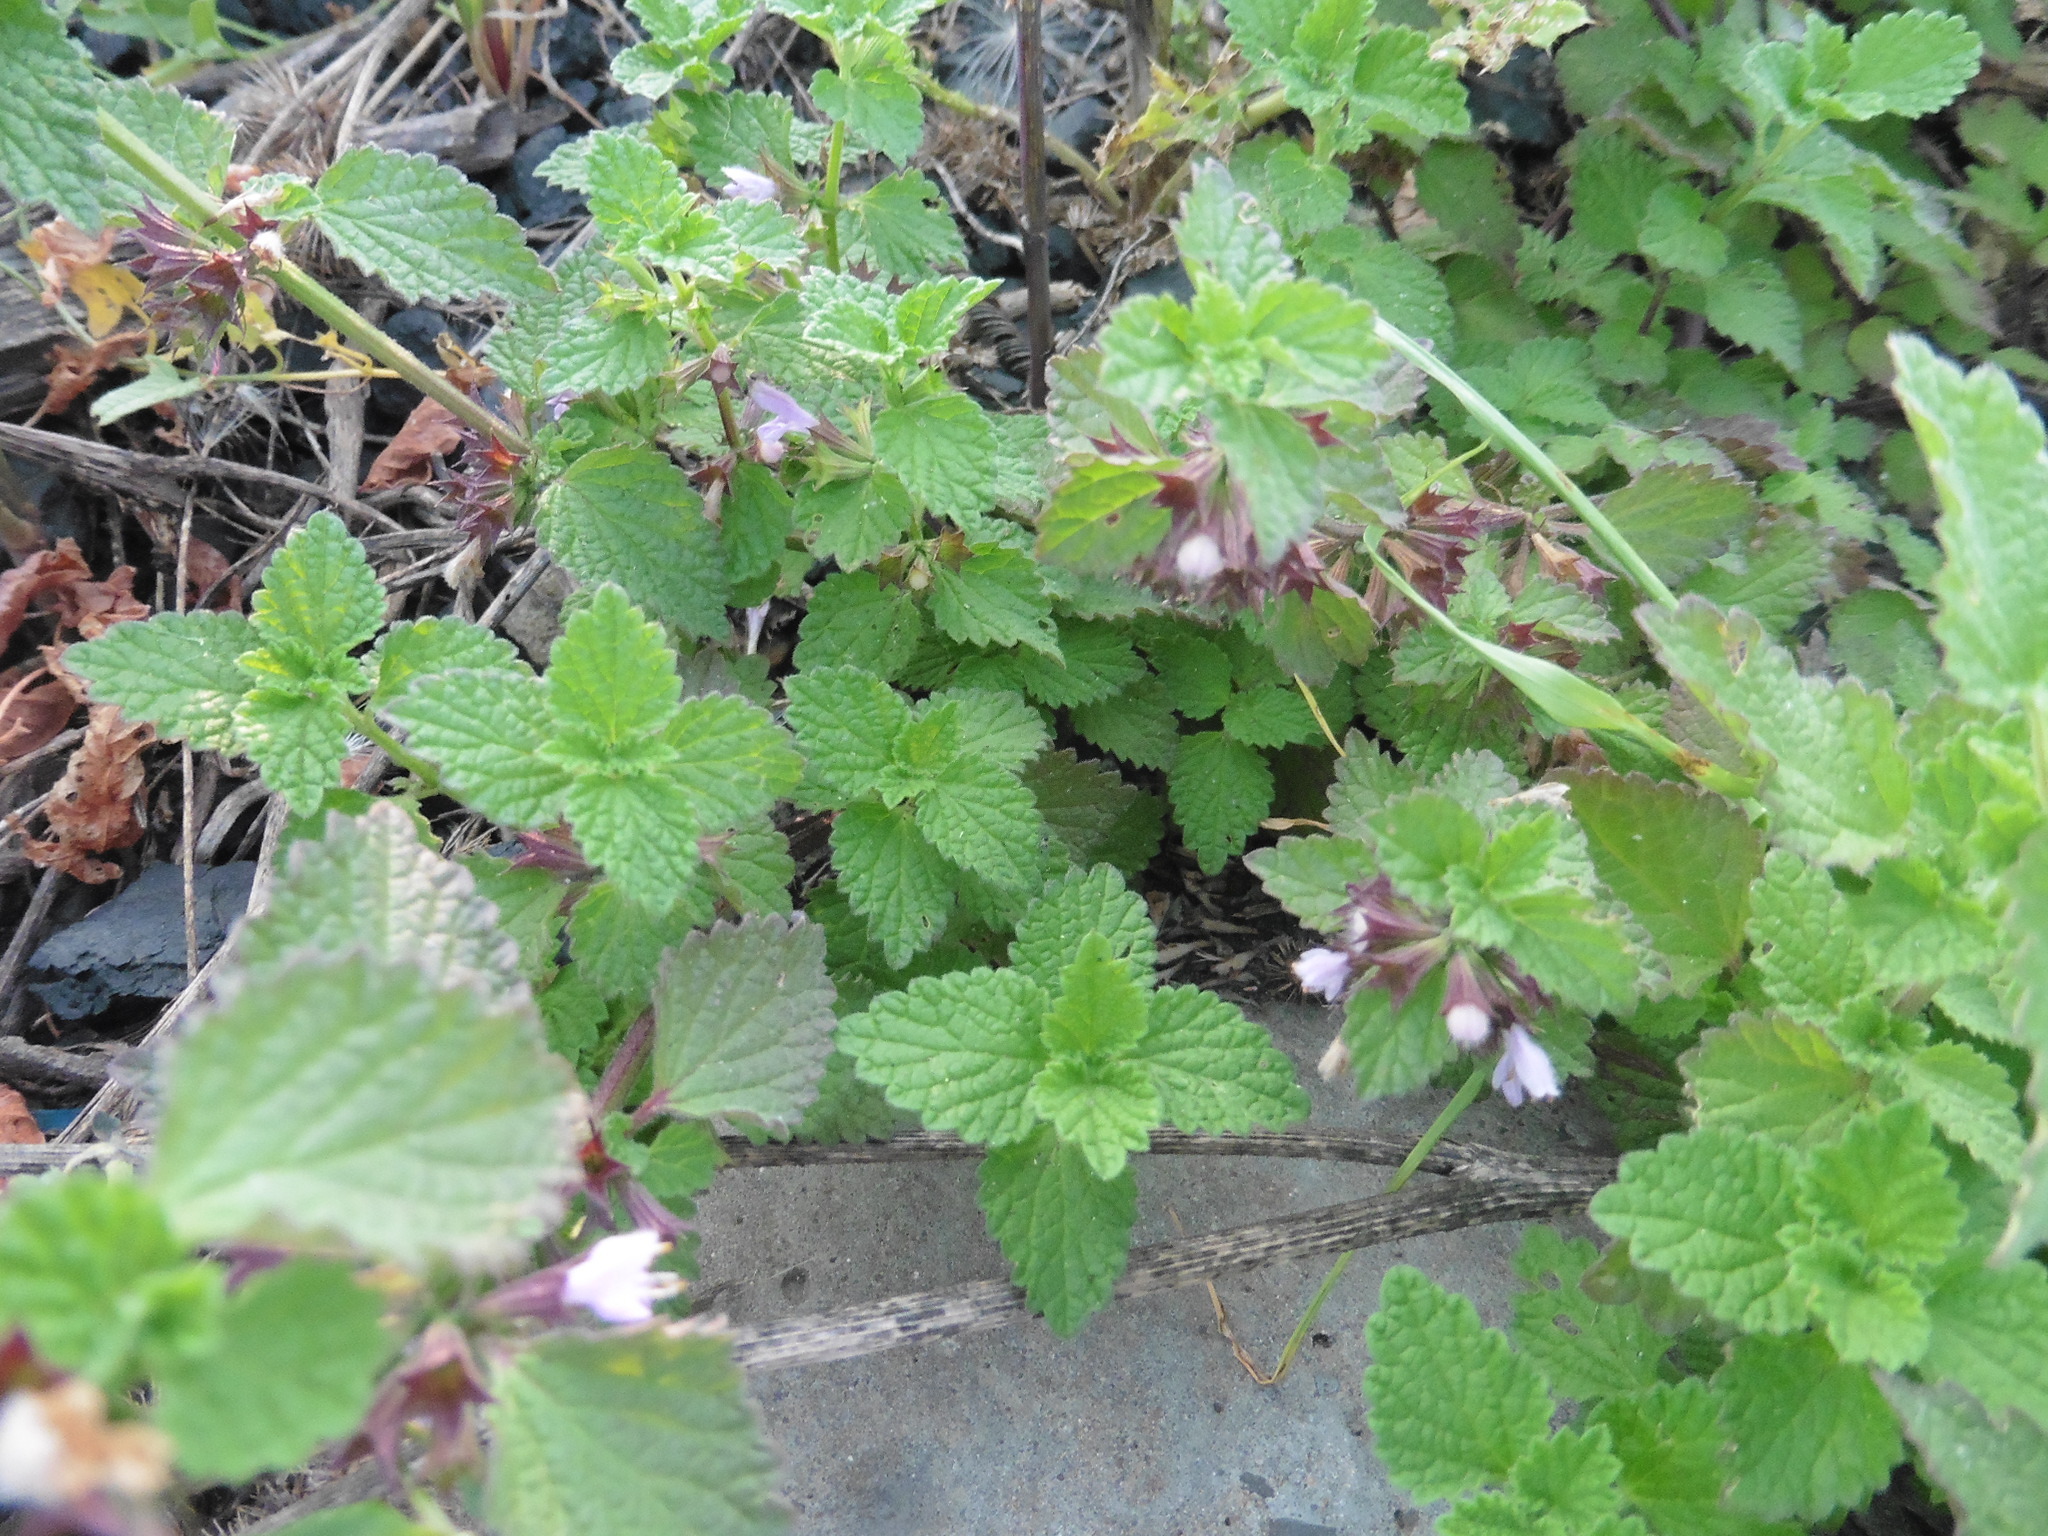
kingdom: Plantae
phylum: Tracheophyta
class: Magnoliopsida
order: Lamiales
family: Lamiaceae
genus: Ballota
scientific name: Ballota nigra
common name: Black horehound
